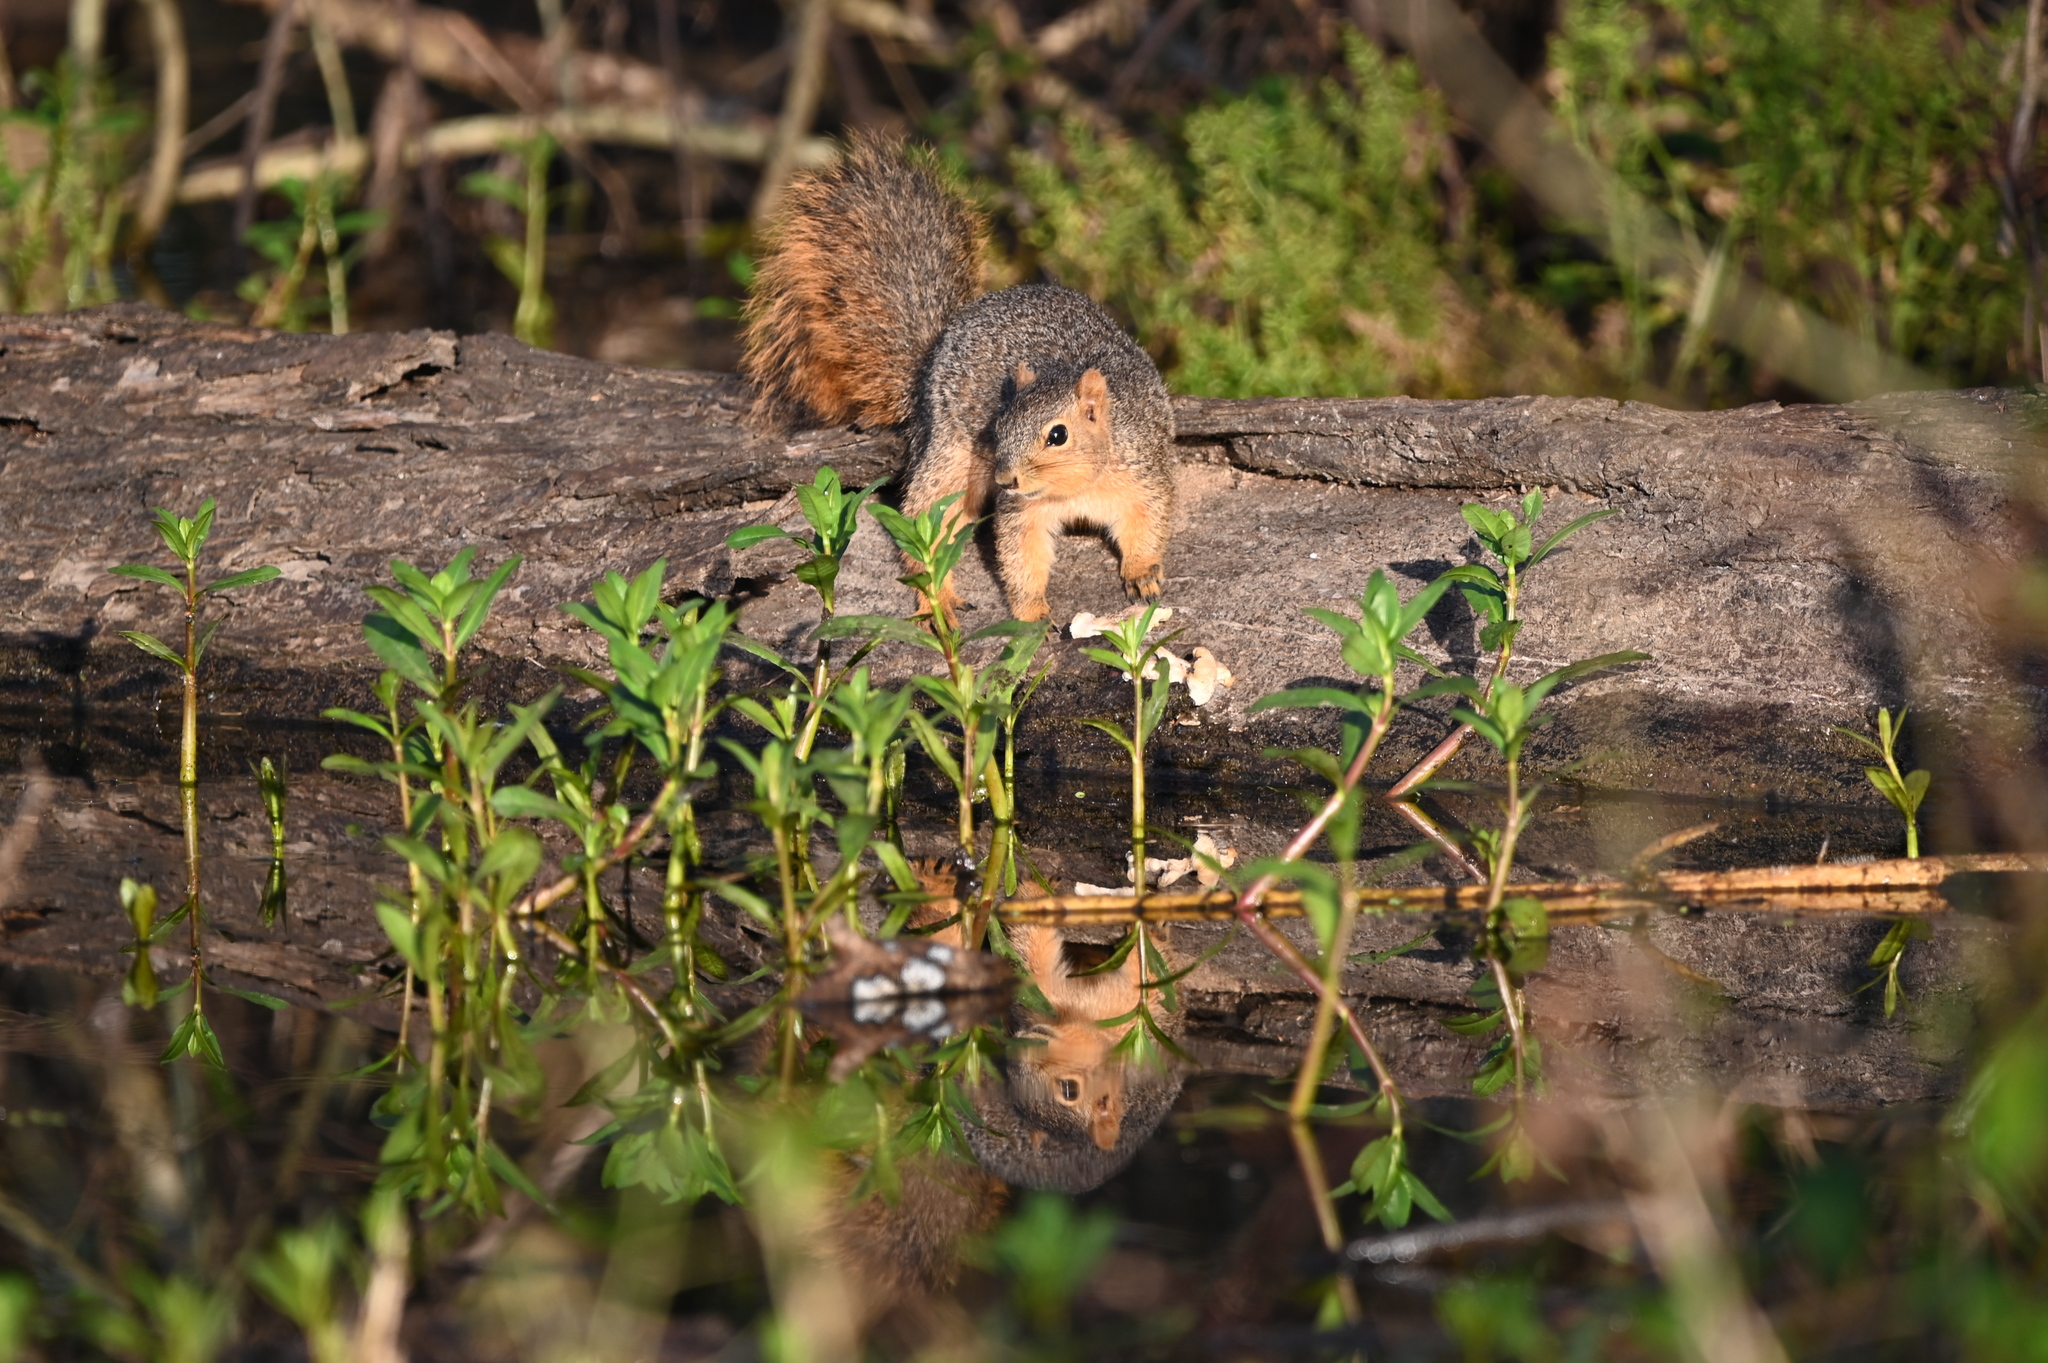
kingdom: Animalia
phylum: Chordata
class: Mammalia
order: Rodentia
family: Sciuridae
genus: Sciurus
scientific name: Sciurus niger
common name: Fox squirrel
